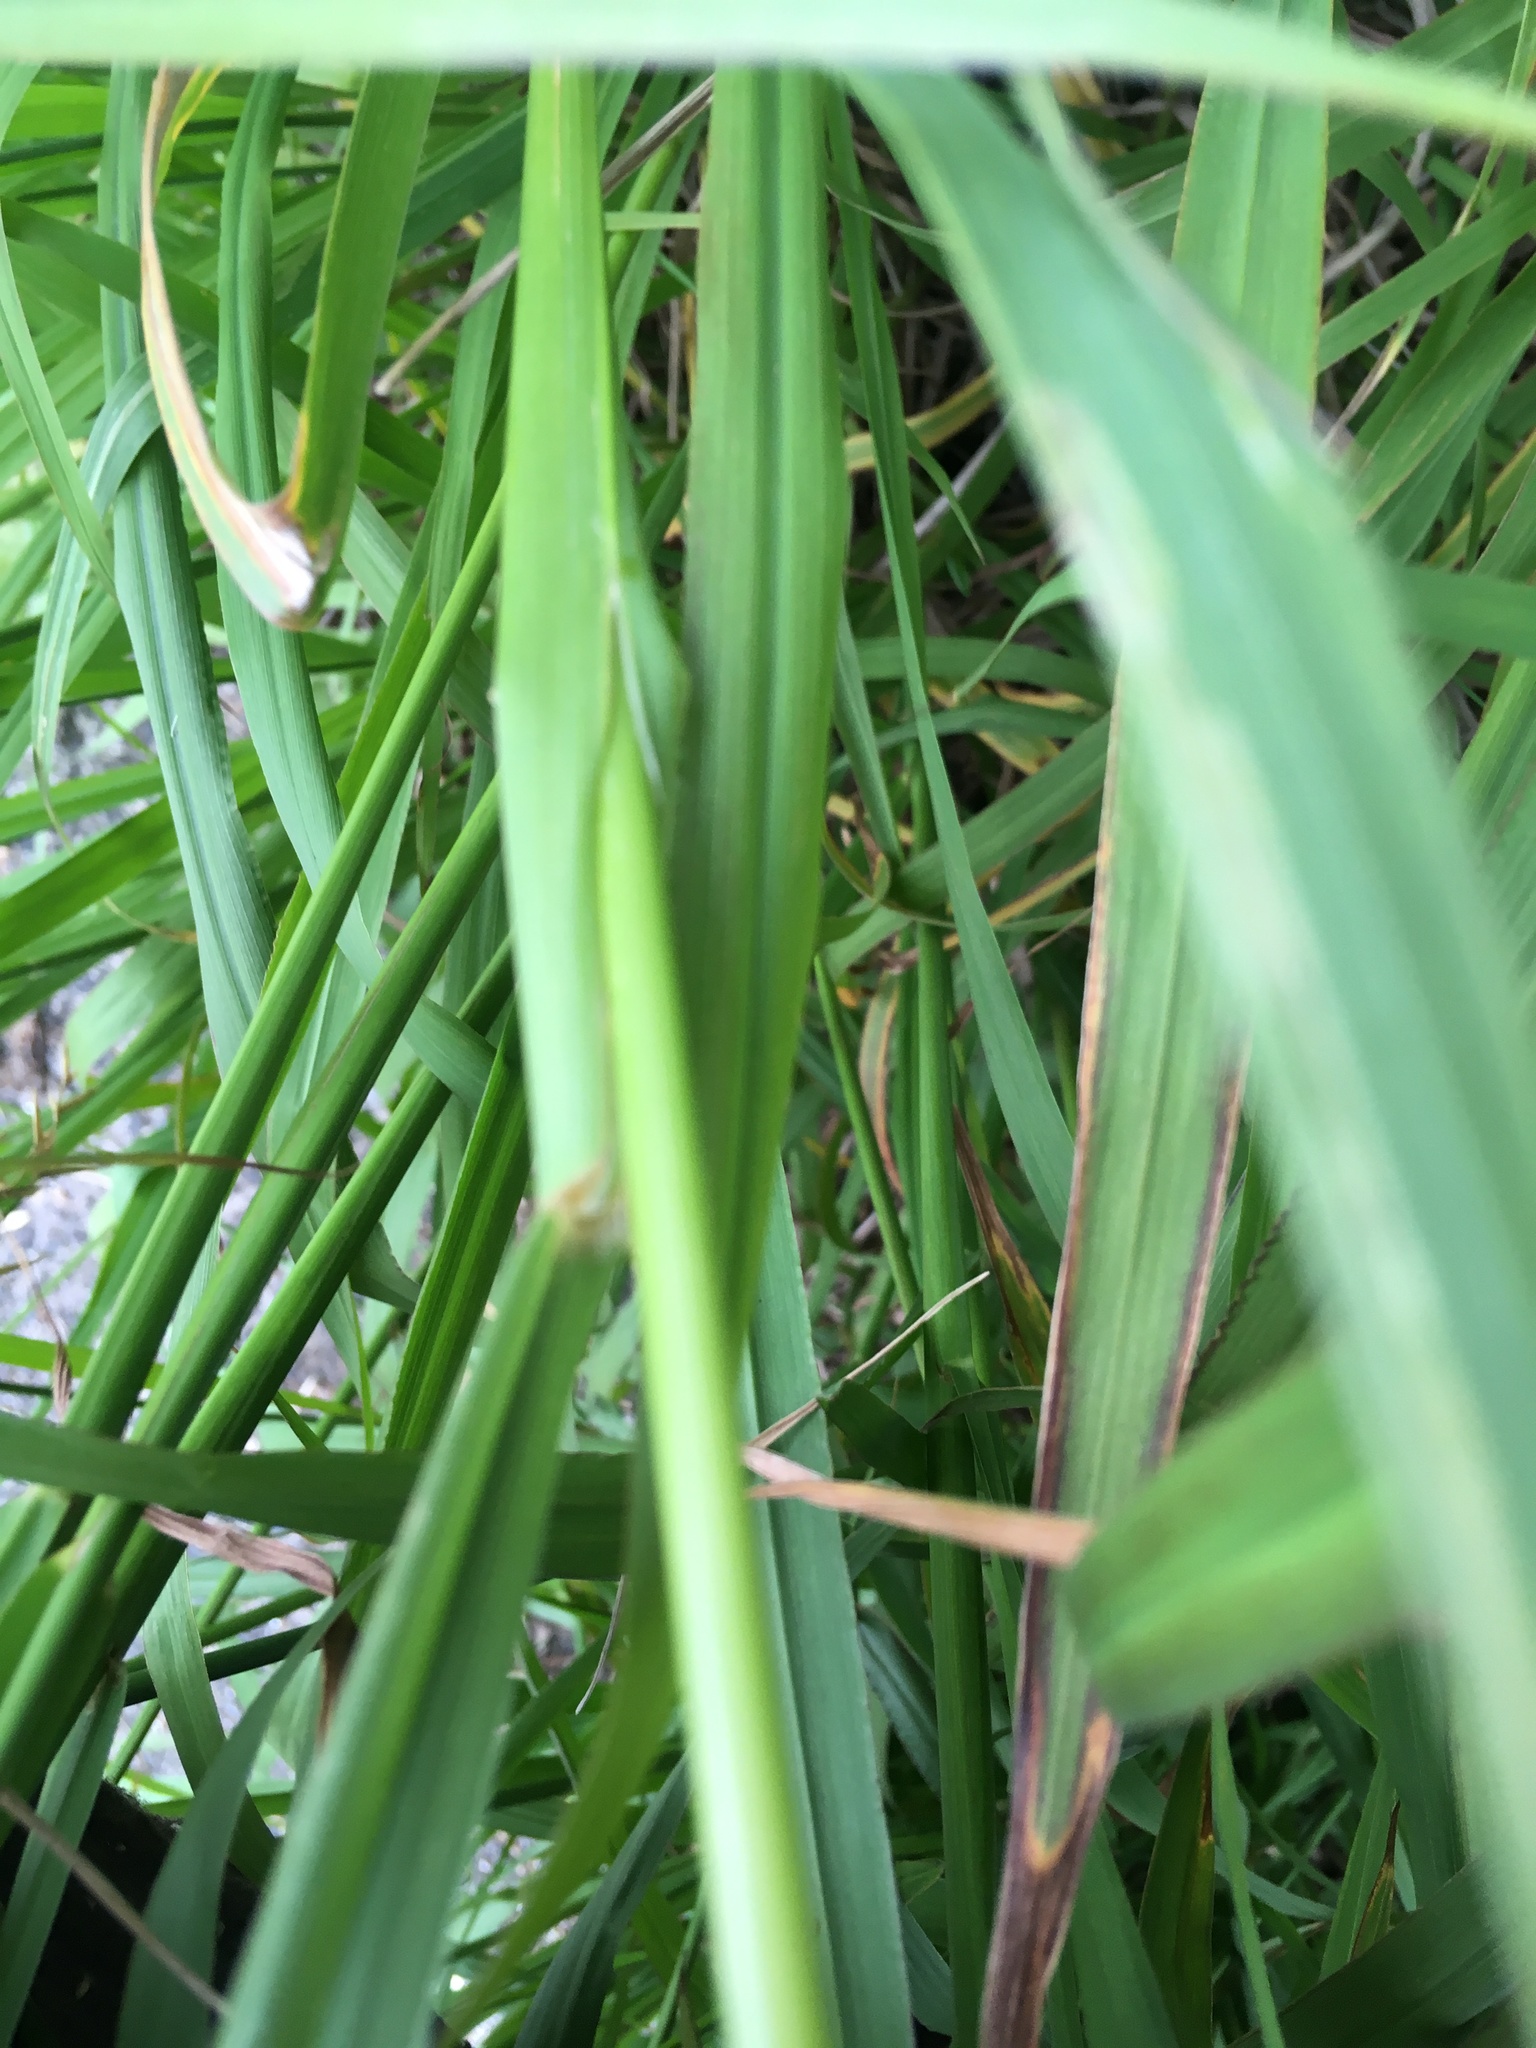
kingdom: Plantae
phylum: Tracheophyta
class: Liliopsida
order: Poales
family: Poaceae
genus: Bromus
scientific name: Bromus catharticus
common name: Rescuegrass
